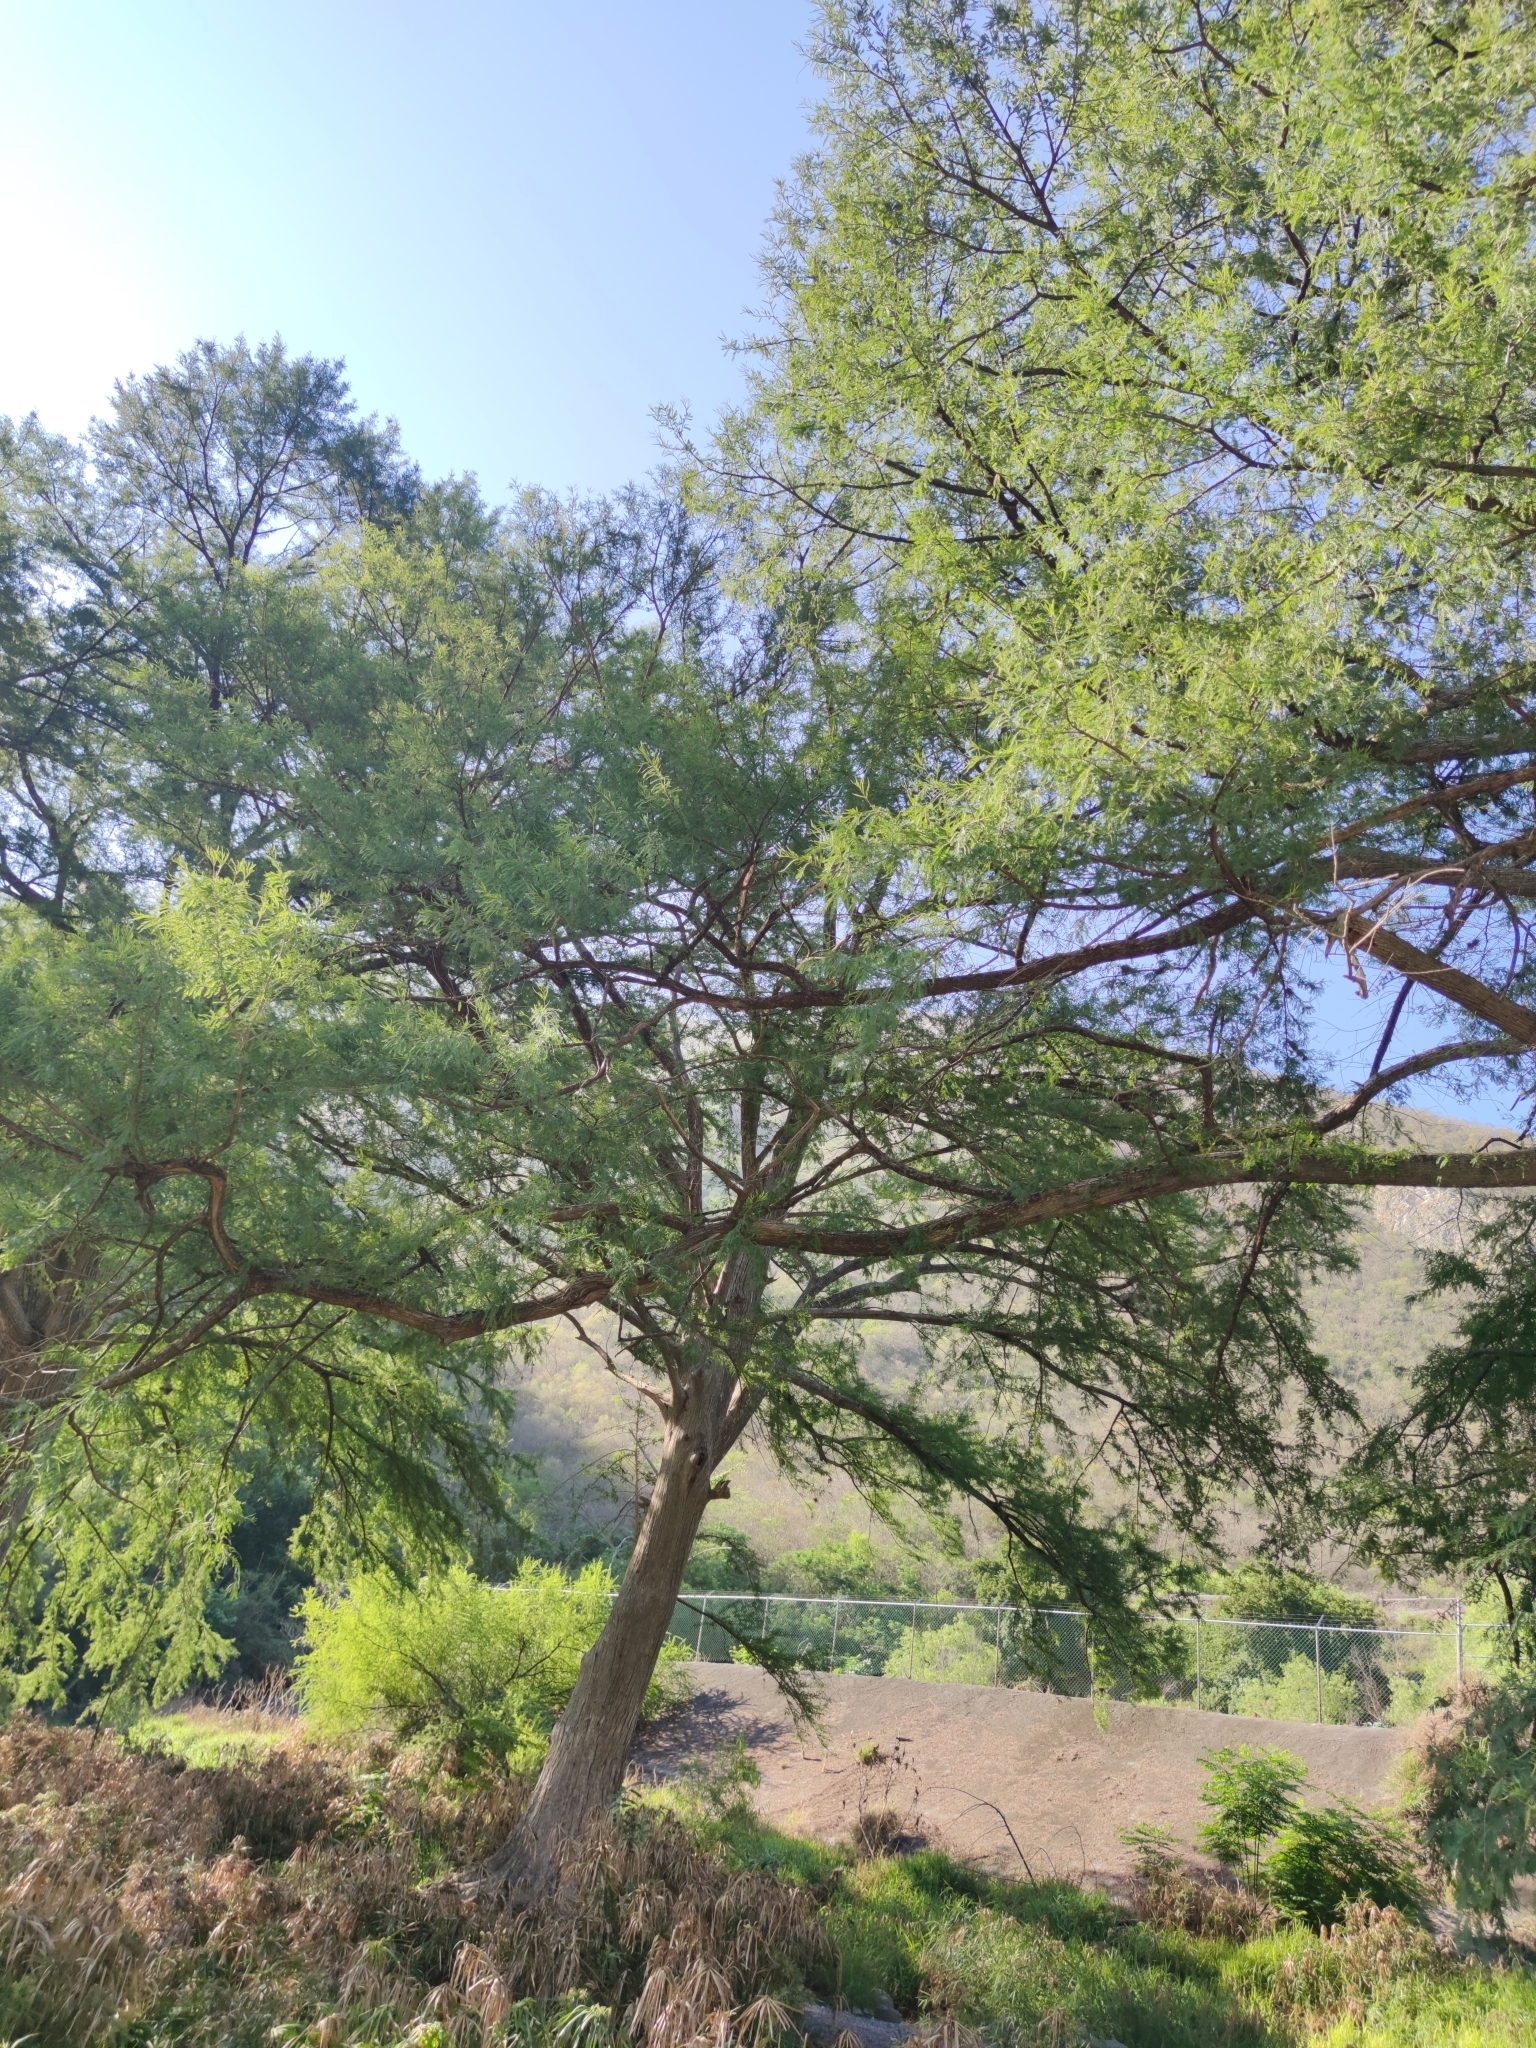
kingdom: Plantae
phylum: Tracheophyta
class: Pinopsida
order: Pinales
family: Cupressaceae
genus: Taxodium
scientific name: Taxodium mucronatum
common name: Montezume bald cypress
